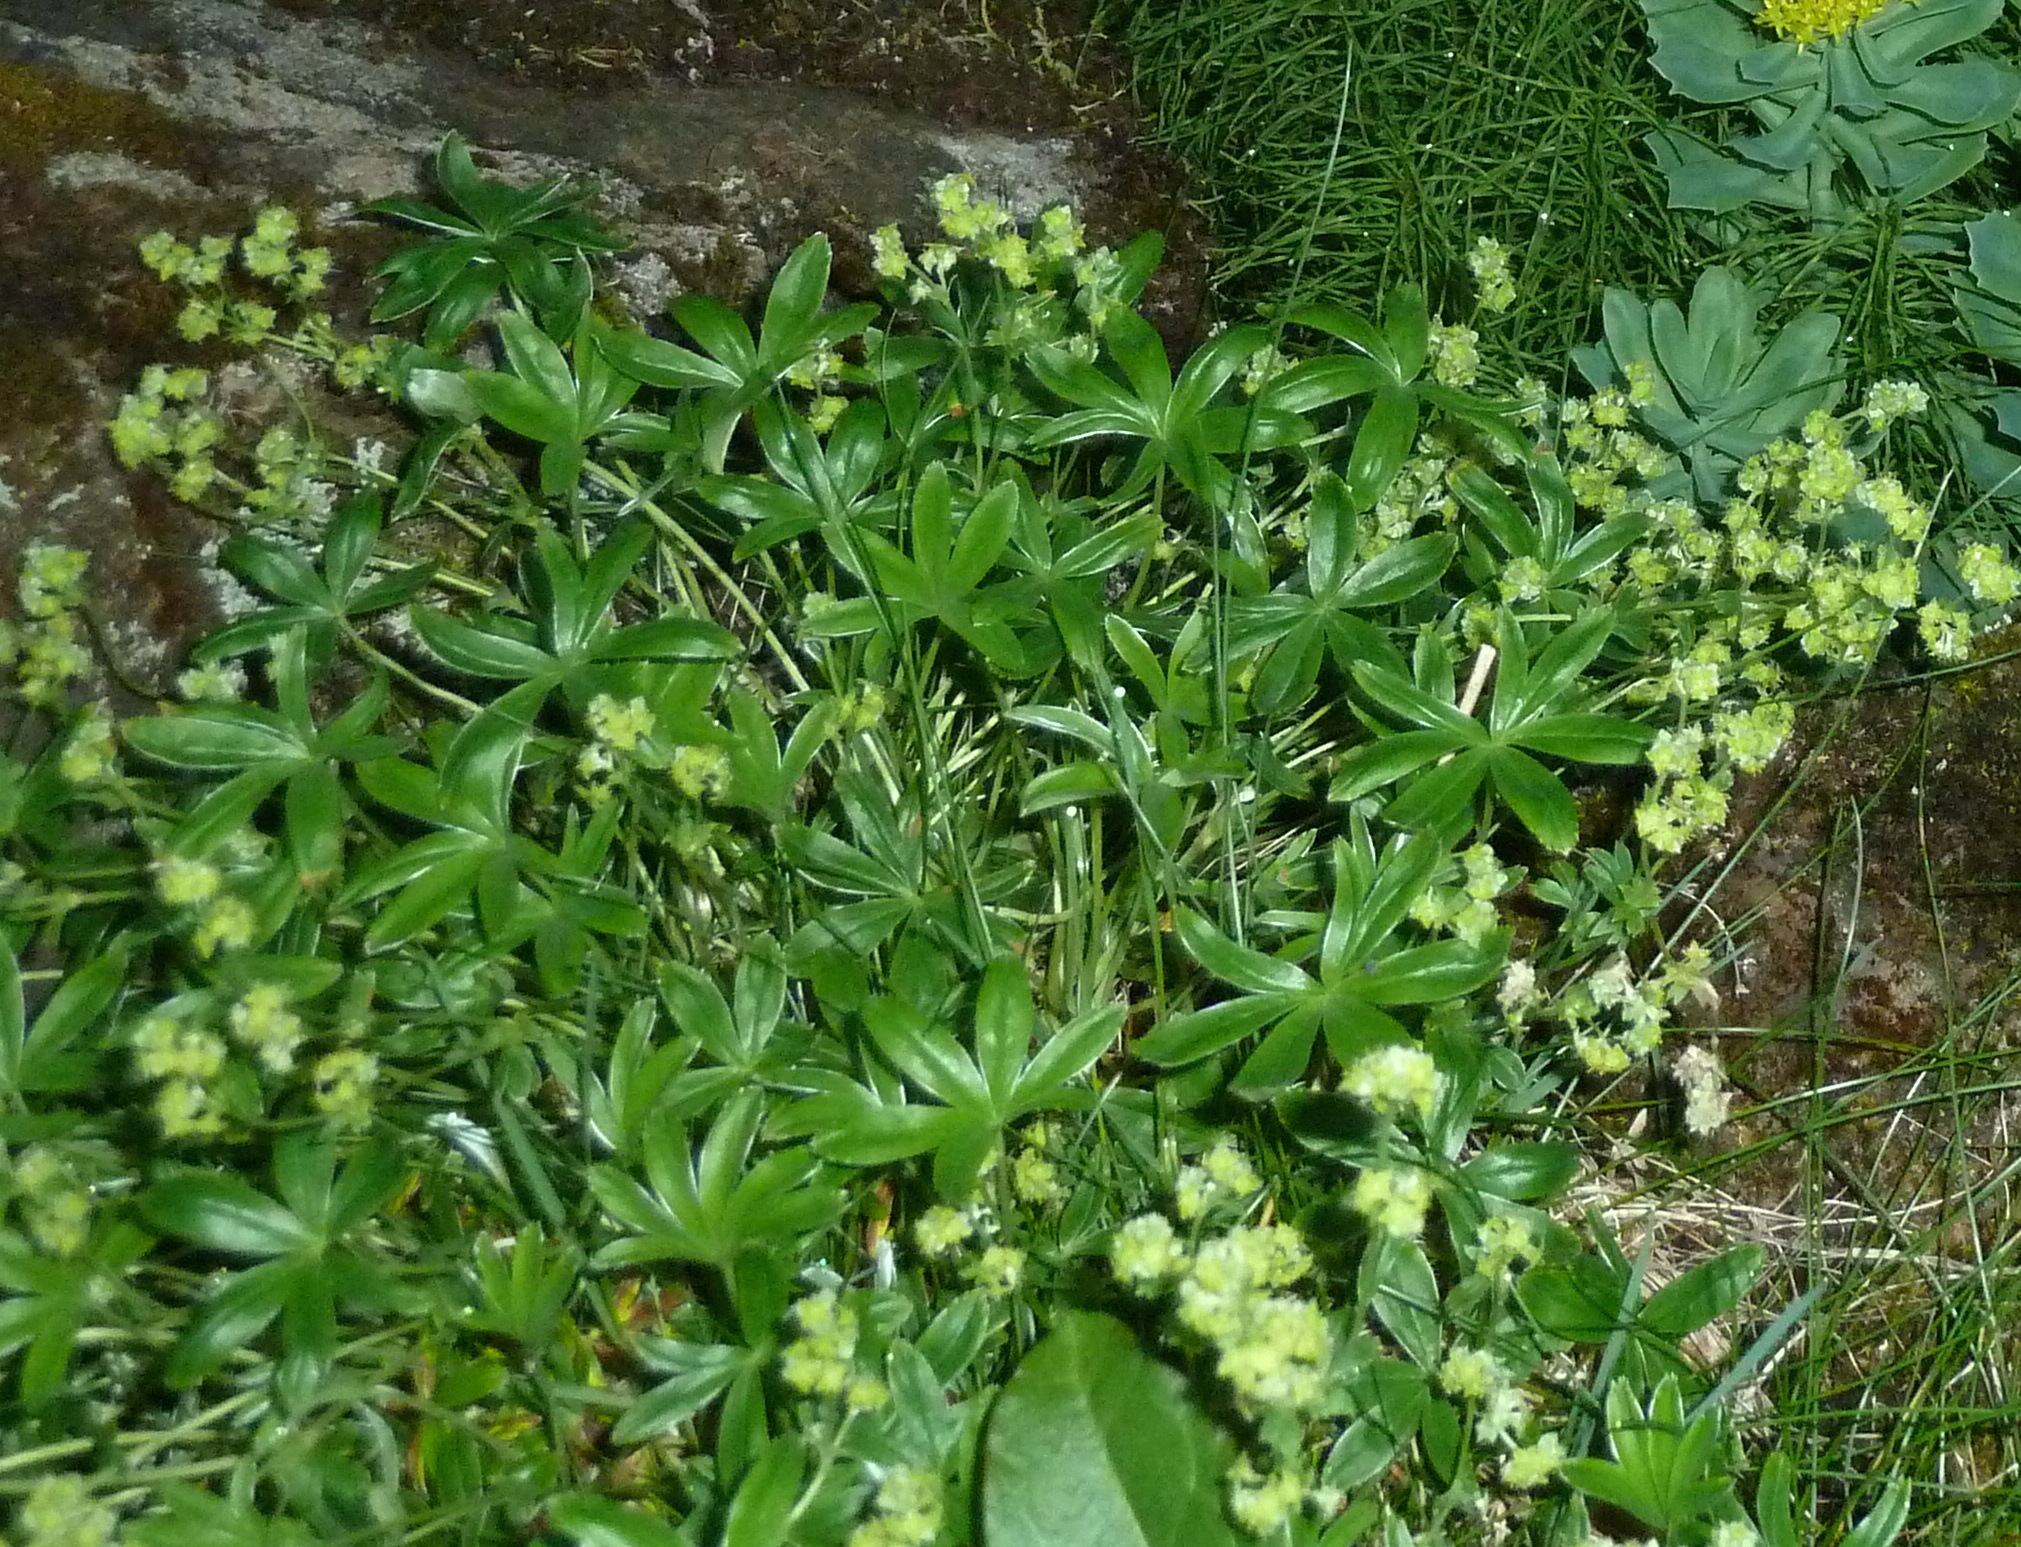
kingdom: Plantae
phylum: Tracheophyta
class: Magnoliopsida
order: Rosales
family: Rosaceae
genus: Alchemilla
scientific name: Alchemilla alpina
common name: Alpine lady's-mantle
